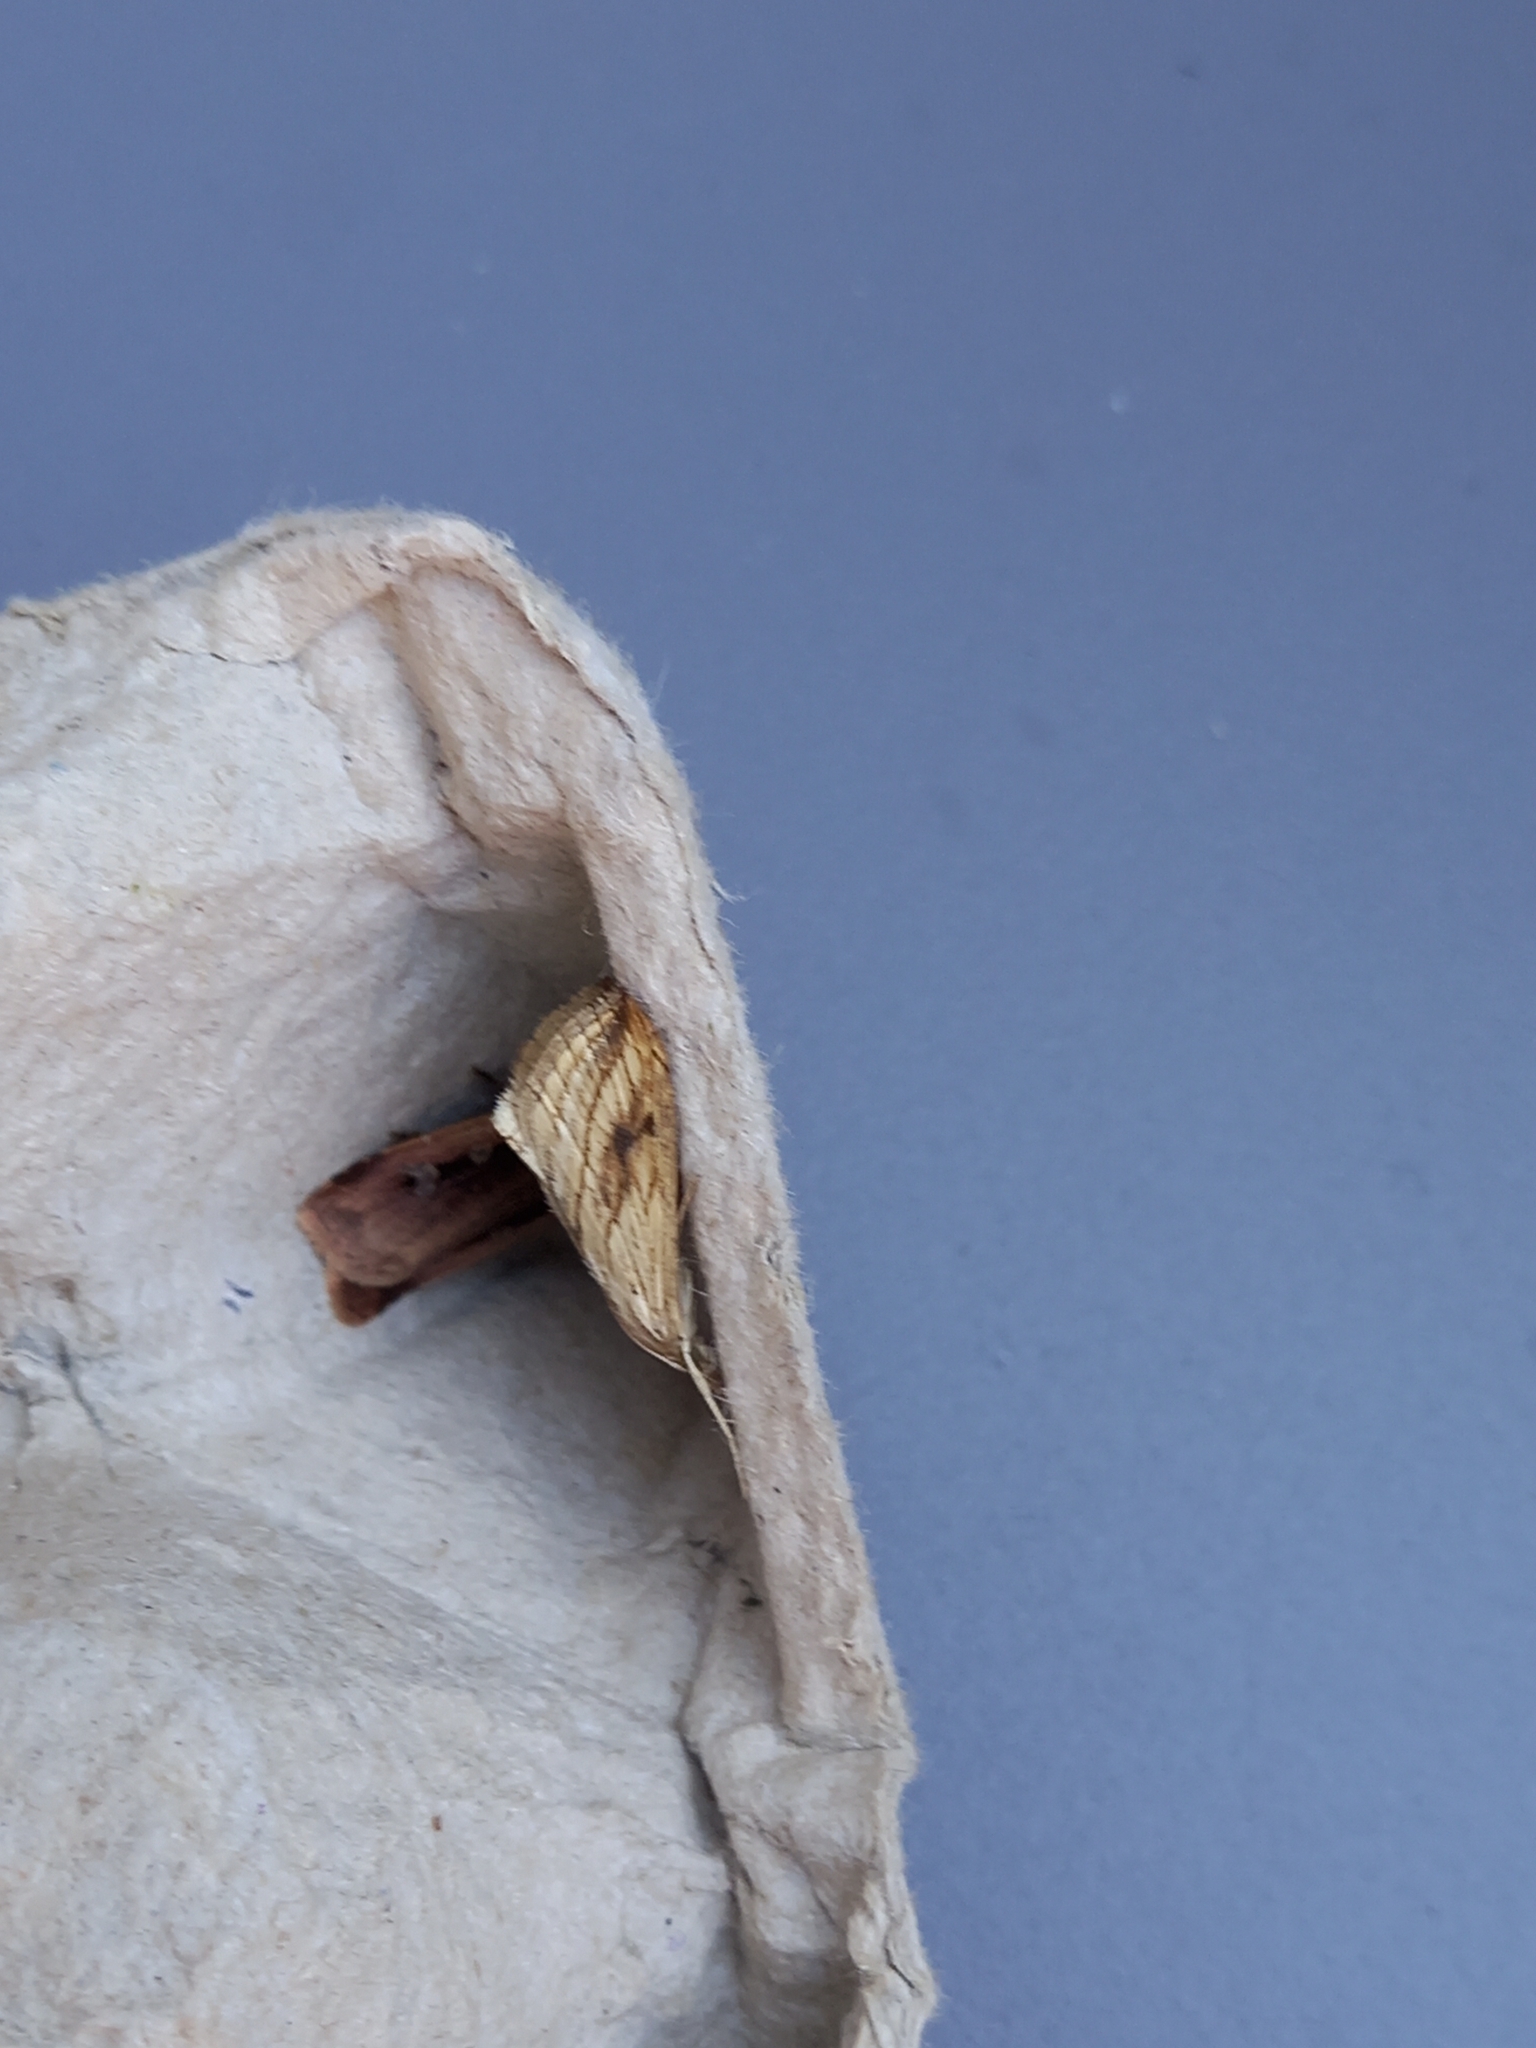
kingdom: Animalia
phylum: Arthropoda
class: Insecta
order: Lepidoptera
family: Crambidae
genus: Evergestis
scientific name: Evergestis forficalis
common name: Garden pebble
